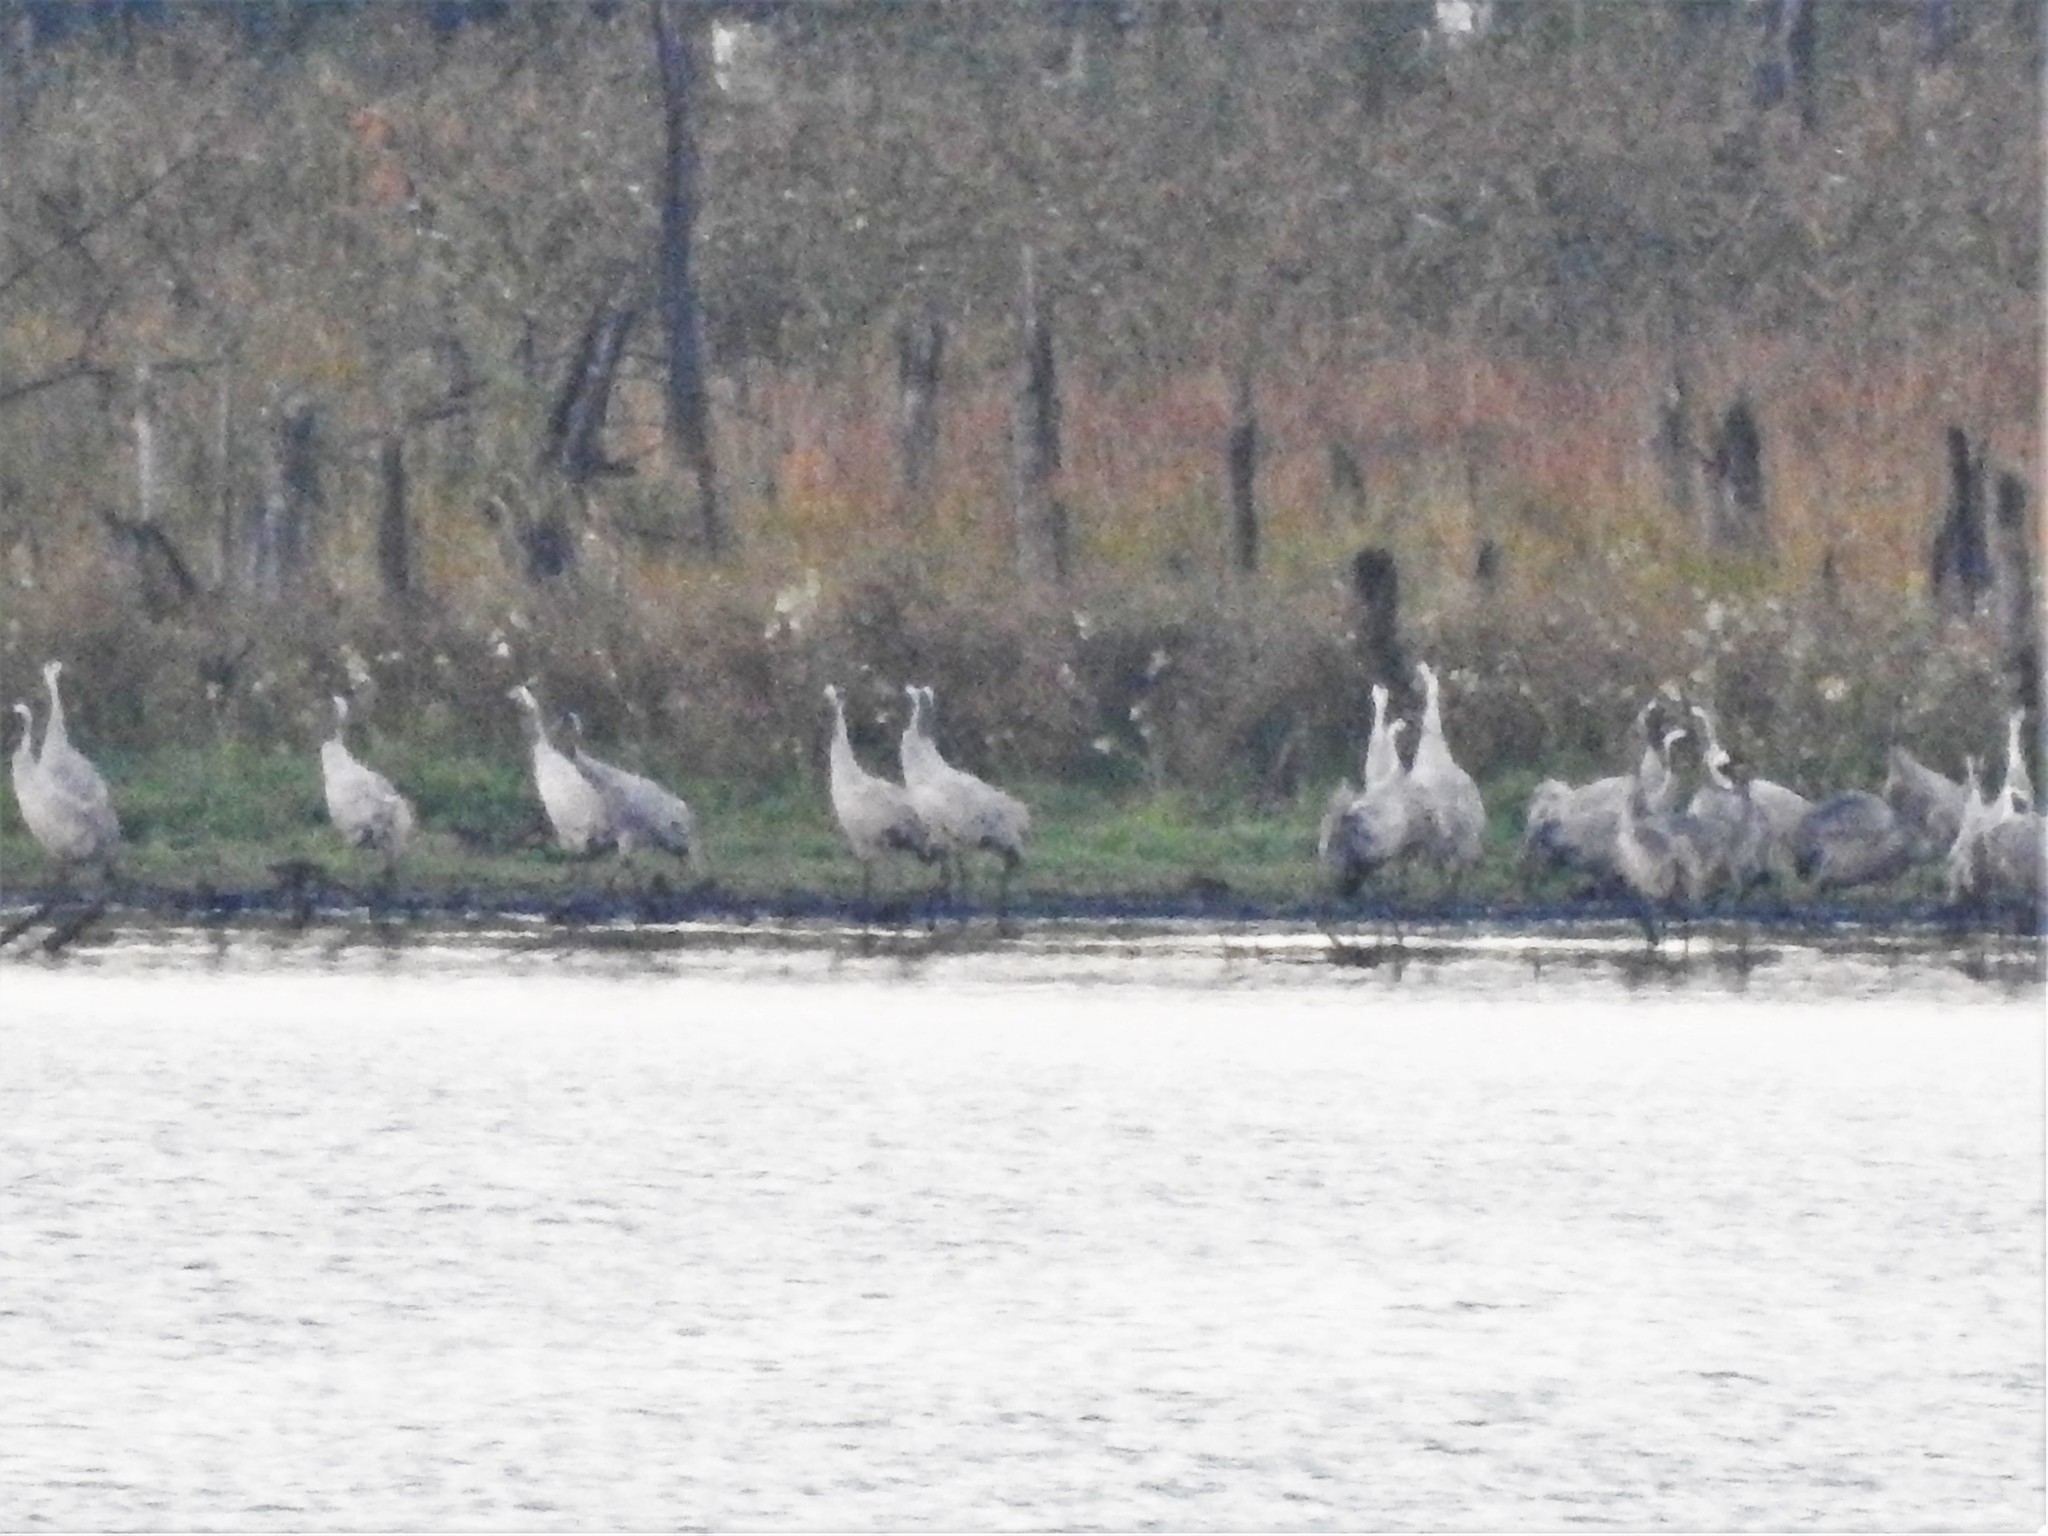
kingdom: Animalia
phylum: Chordata
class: Aves
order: Gruiformes
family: Gruidae
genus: Grus
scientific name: Grus grus
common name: Common crane
